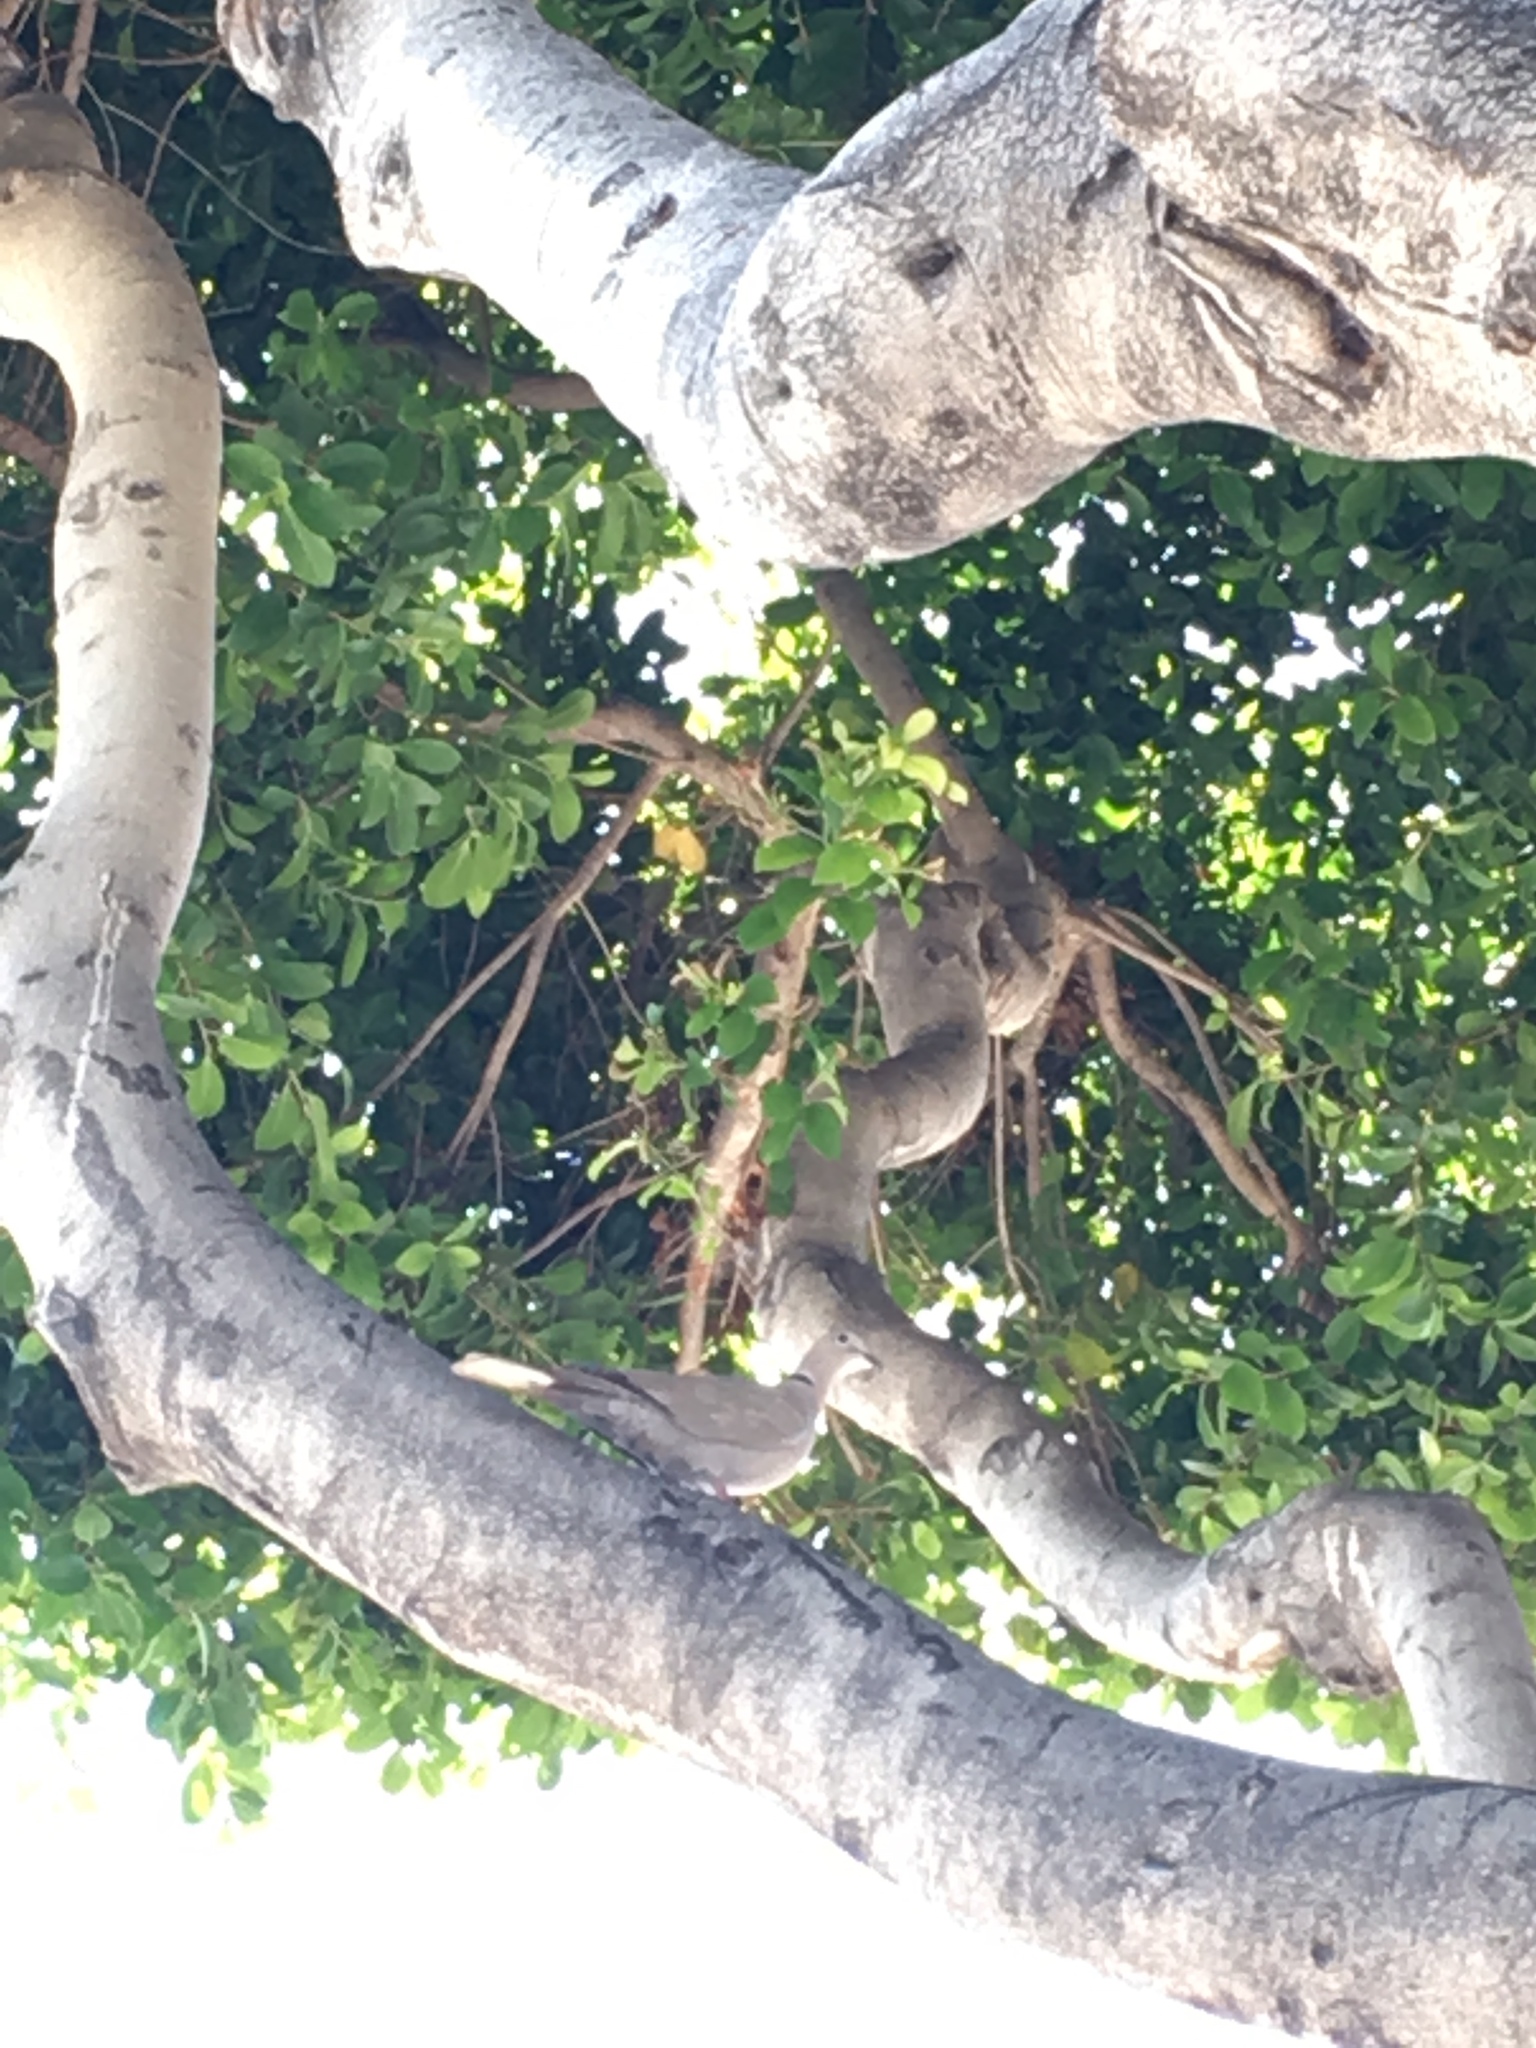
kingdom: Animalia
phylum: Chordata
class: Aves
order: Columbiformes
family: Columbidae
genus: Streptopelia
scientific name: Streptopelia decaocto
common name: Eurasian collared dove
